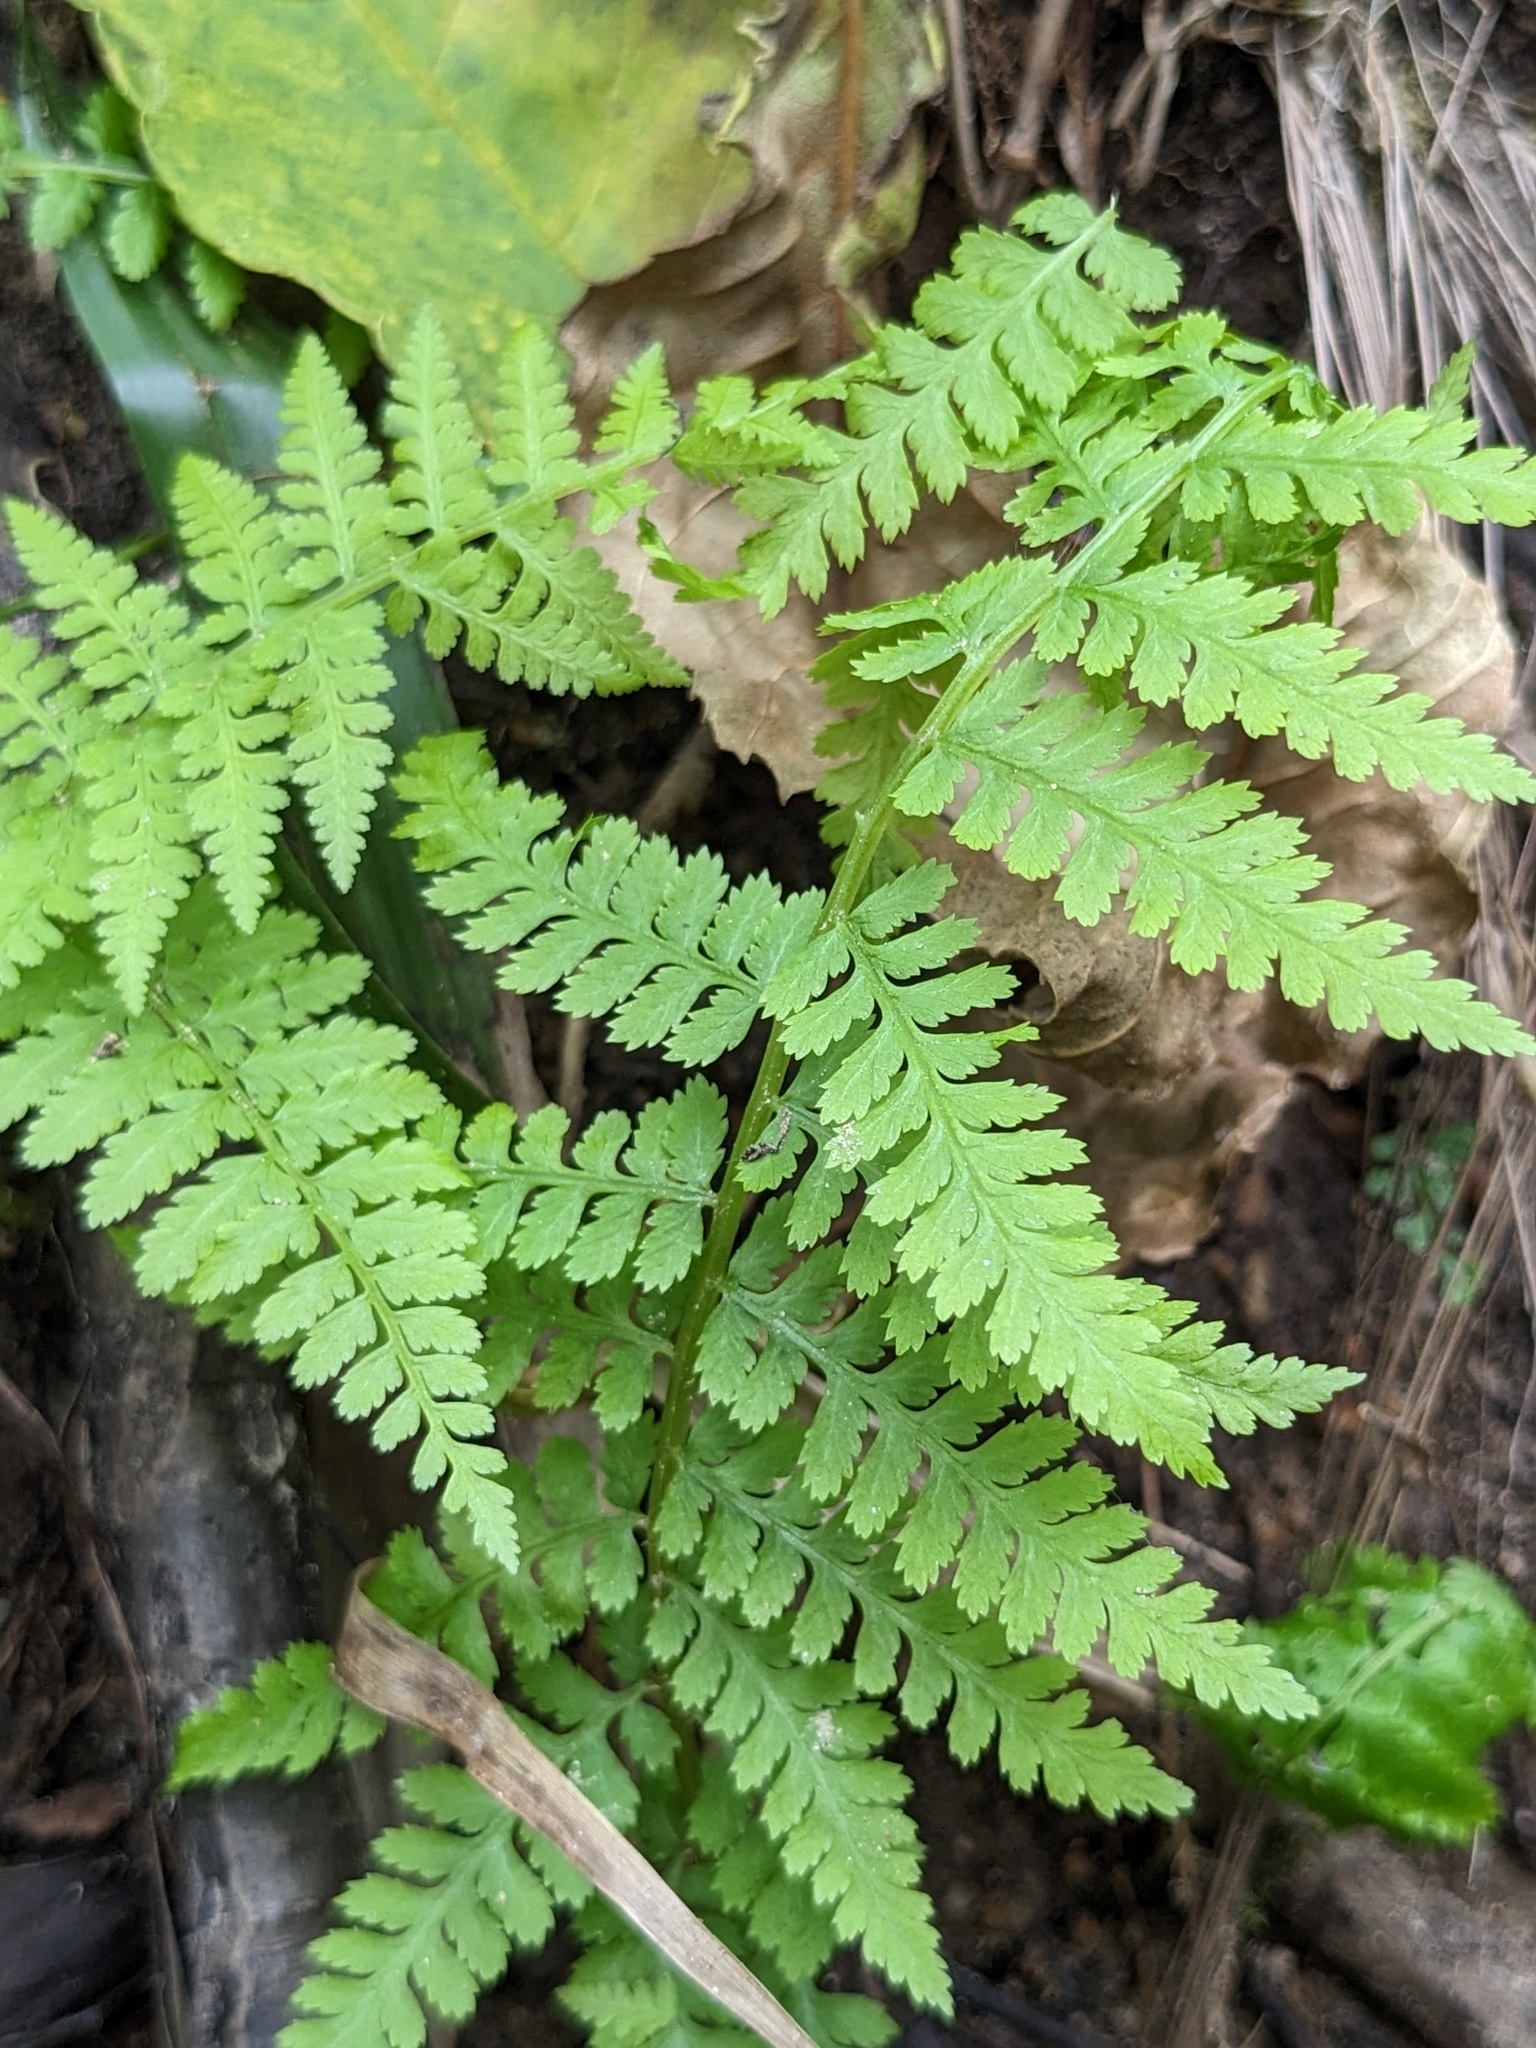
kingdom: Plantae
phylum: Tracheophyta
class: Polypodiopsida
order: Polypodiales
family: Athyriaceae
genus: Athyrium
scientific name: Athyrium filix-femina
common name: Lady fern
